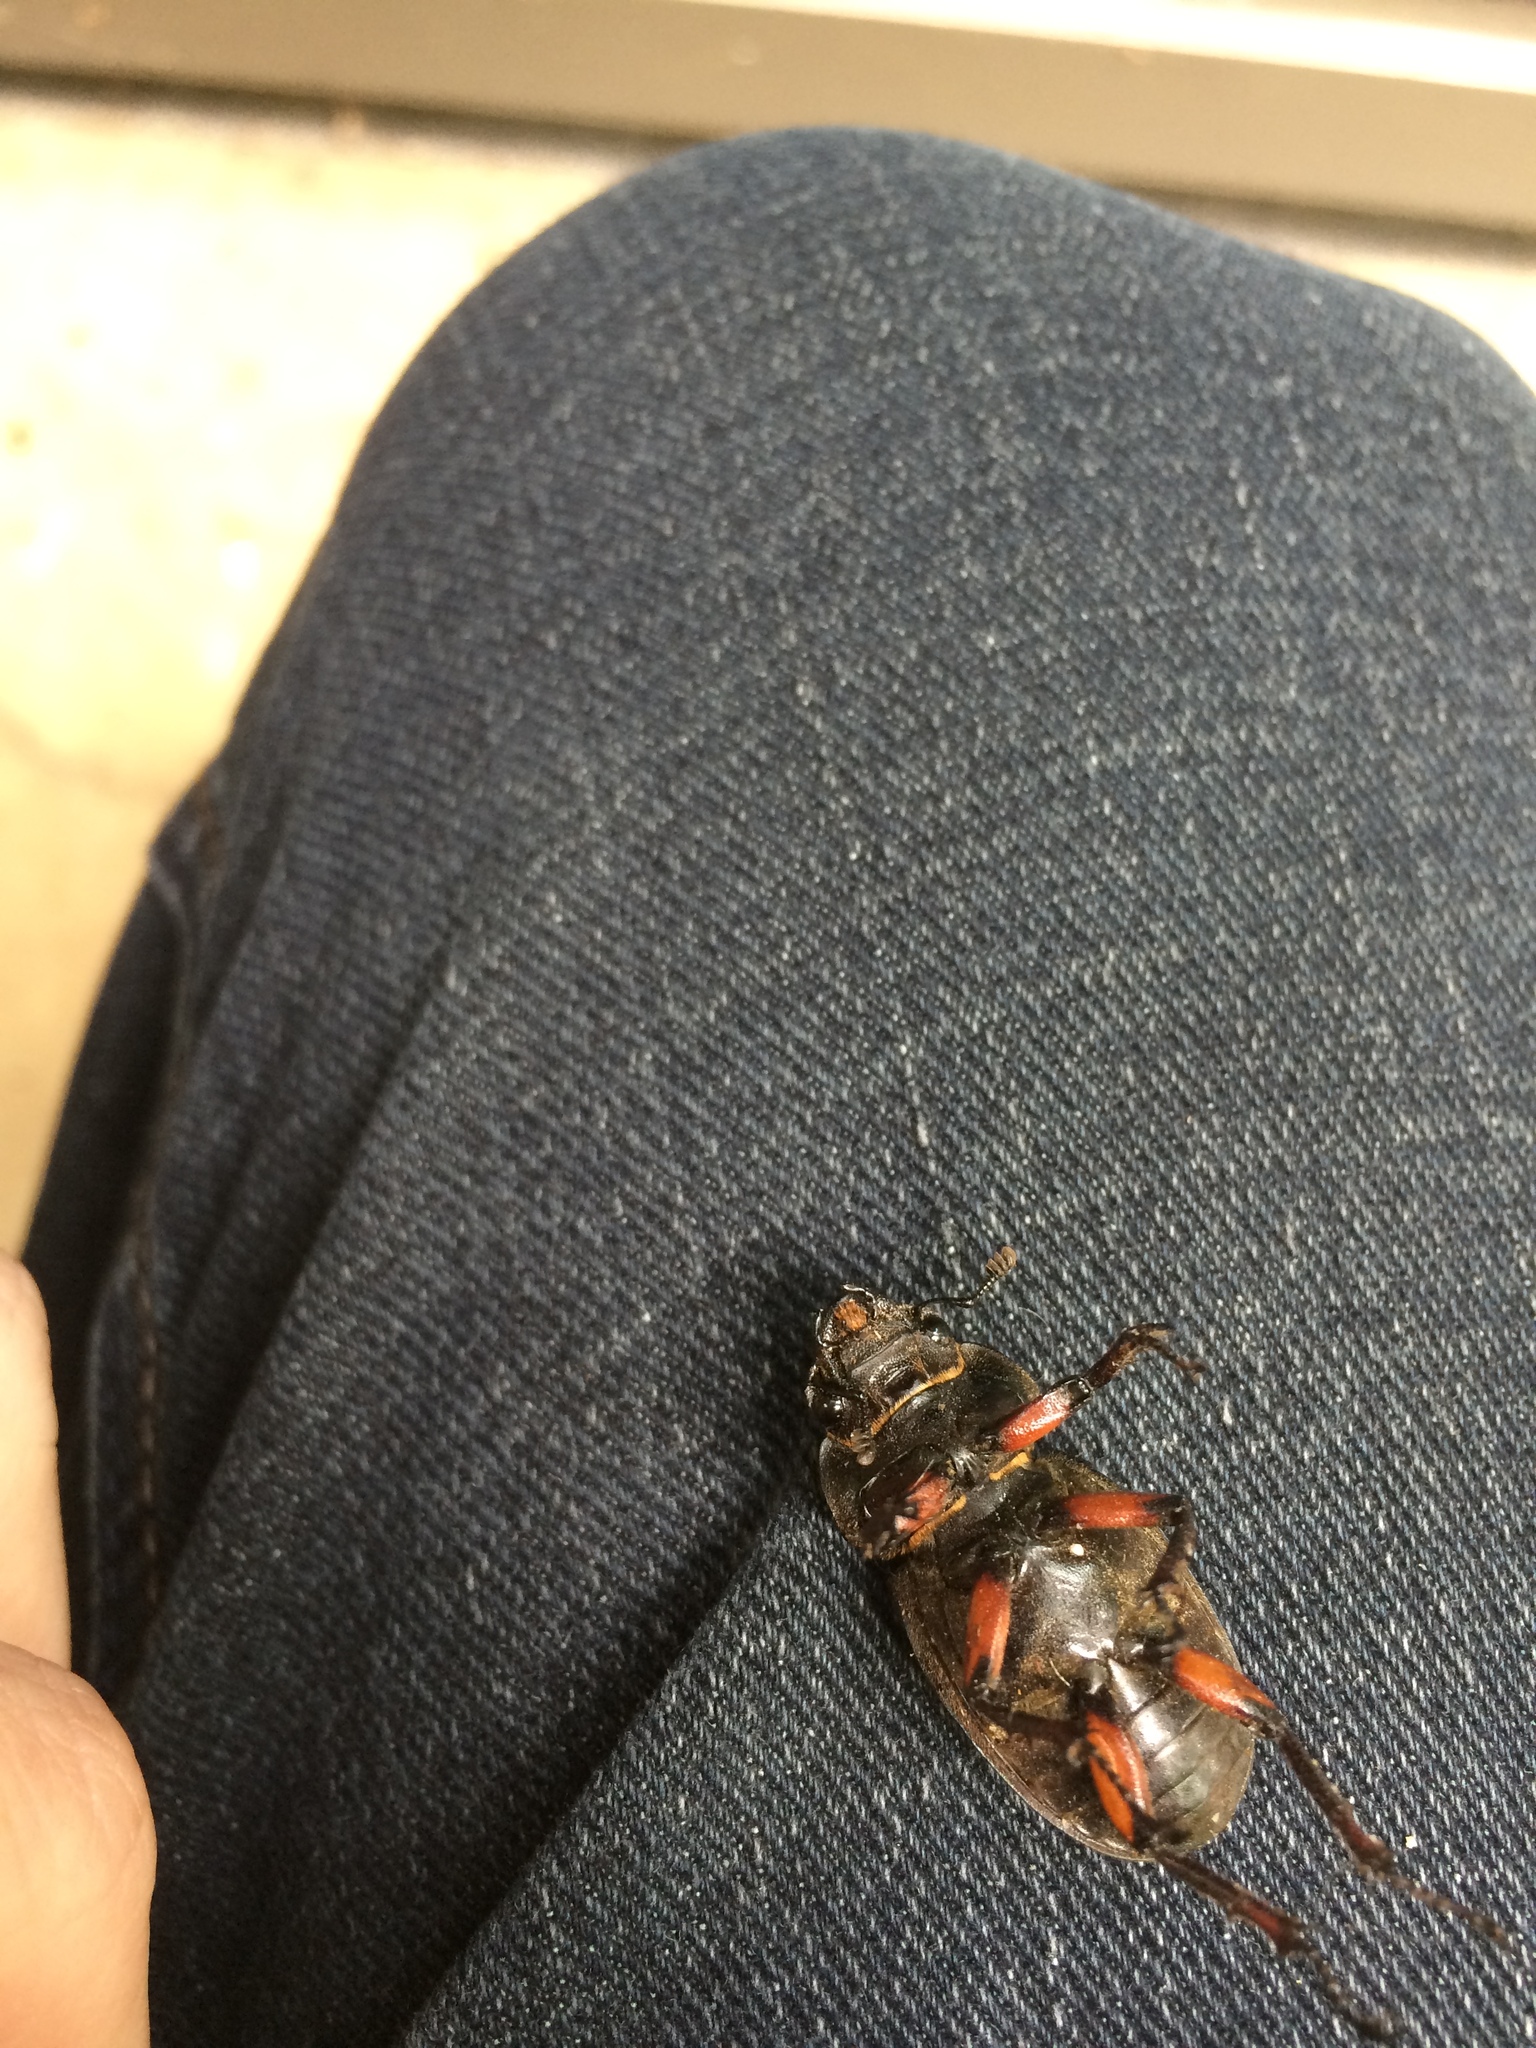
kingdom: Animalia
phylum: Arthropoda
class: Insecta
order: Coleoptera
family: Lucanidae
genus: Lucanus
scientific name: Lucanus capreolus
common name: Stag beetle
